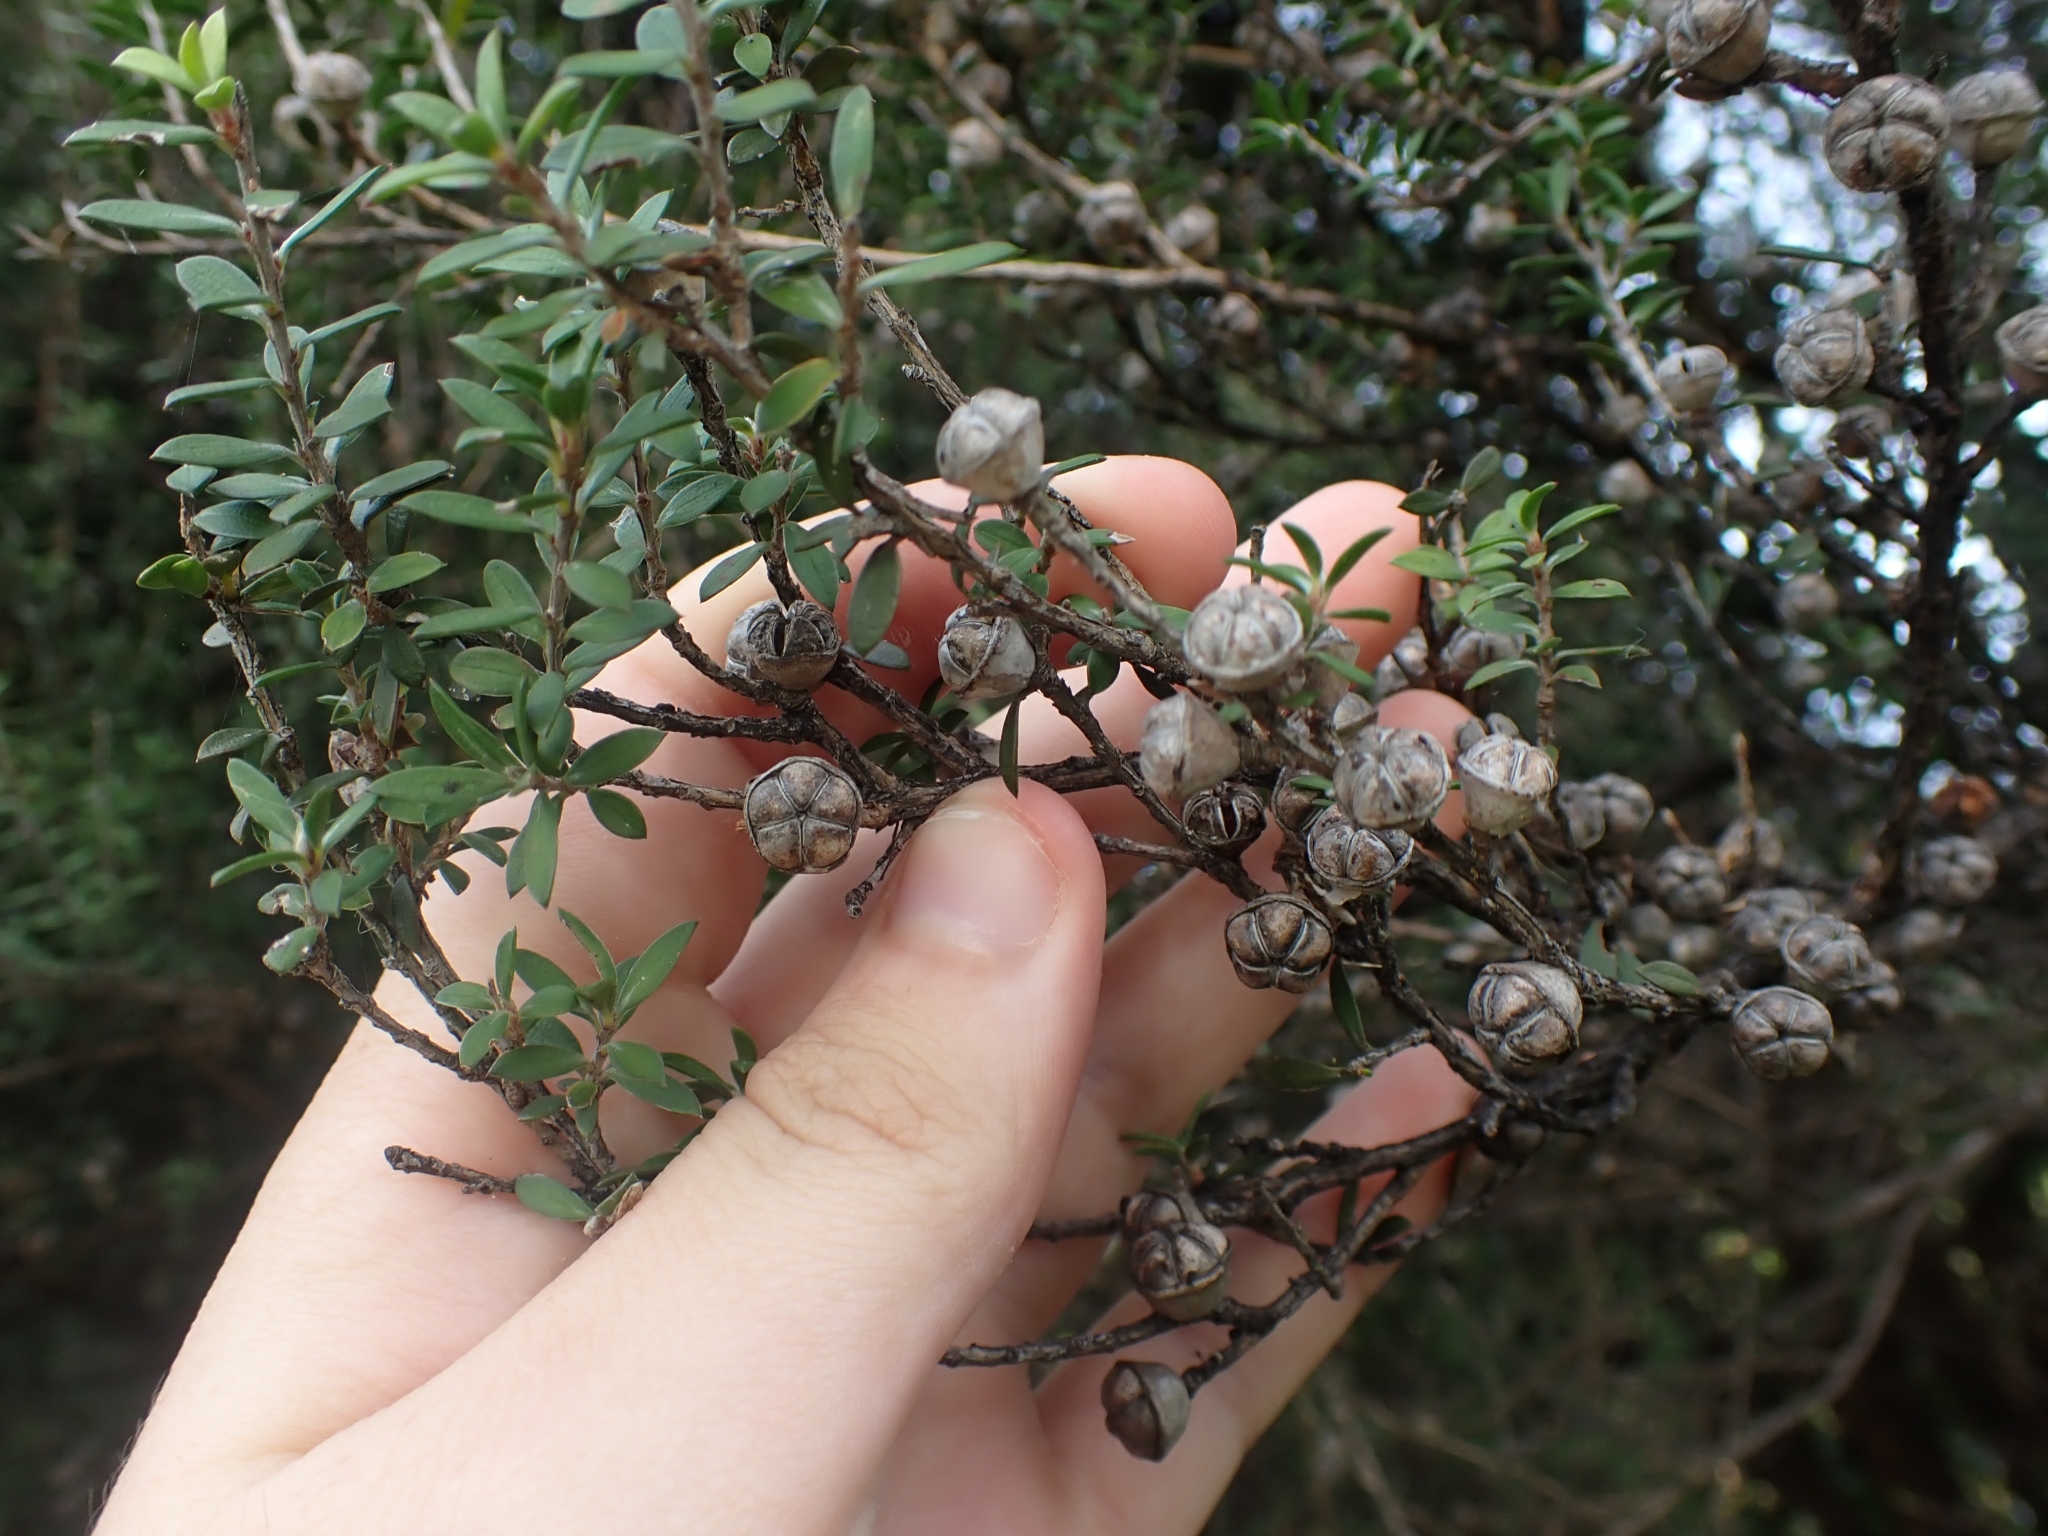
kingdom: Plantae
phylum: Tracheophyta
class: Magnoliopsida
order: Myrtales
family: Myrtaceae
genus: Leptospermum
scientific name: Leptospermum scoparium
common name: Broom tea-tree
